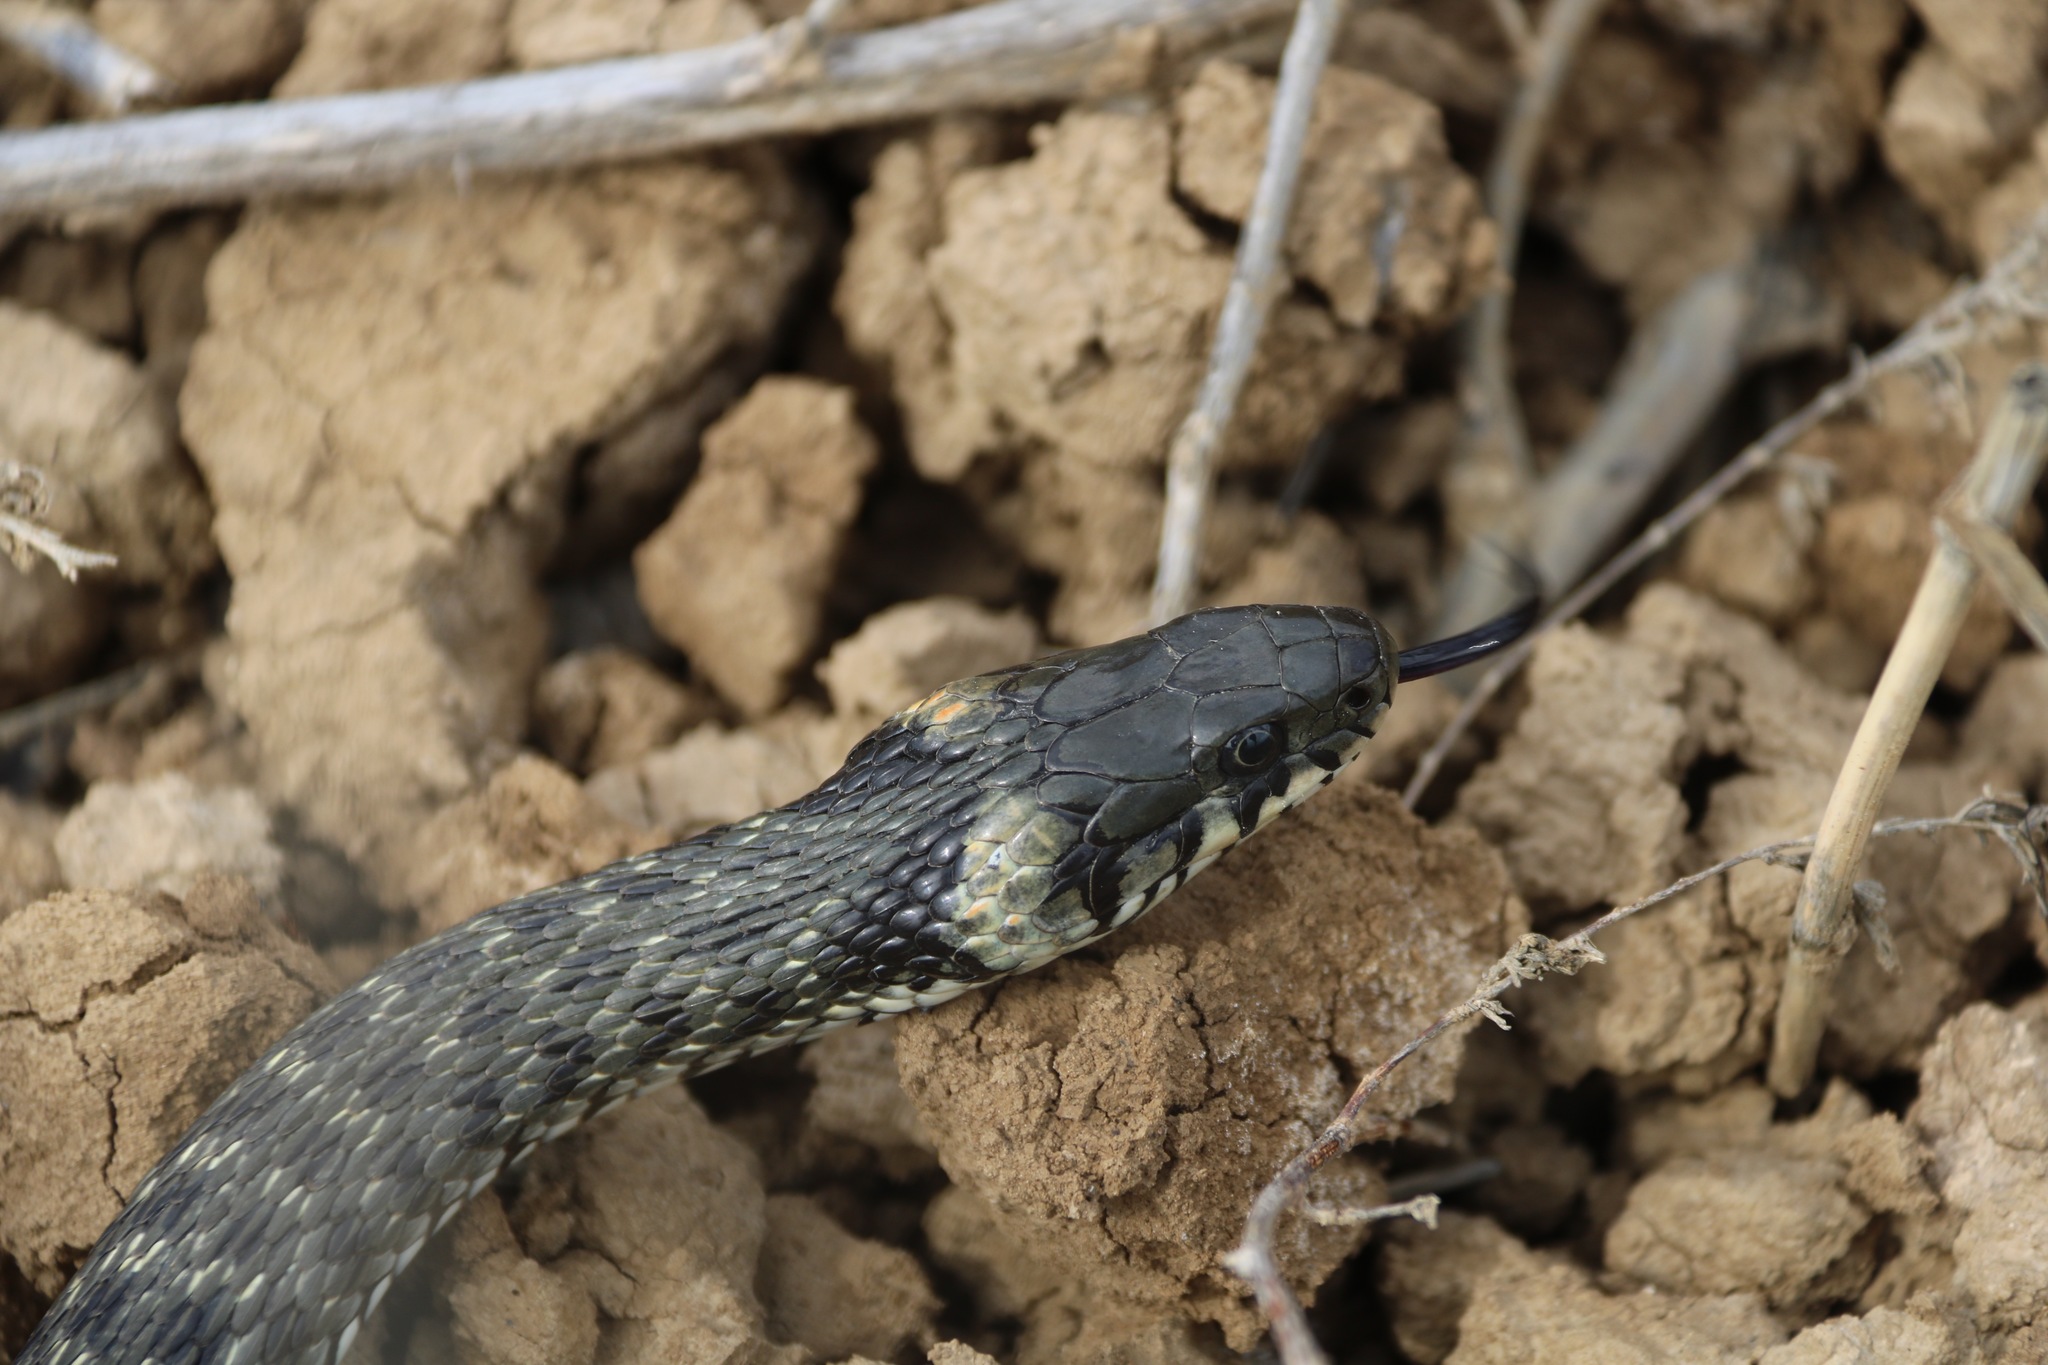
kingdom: Animalia
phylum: Chordata
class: Squamata
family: Colubridae
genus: Natrix
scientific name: Natrix natrix
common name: Grass snake
